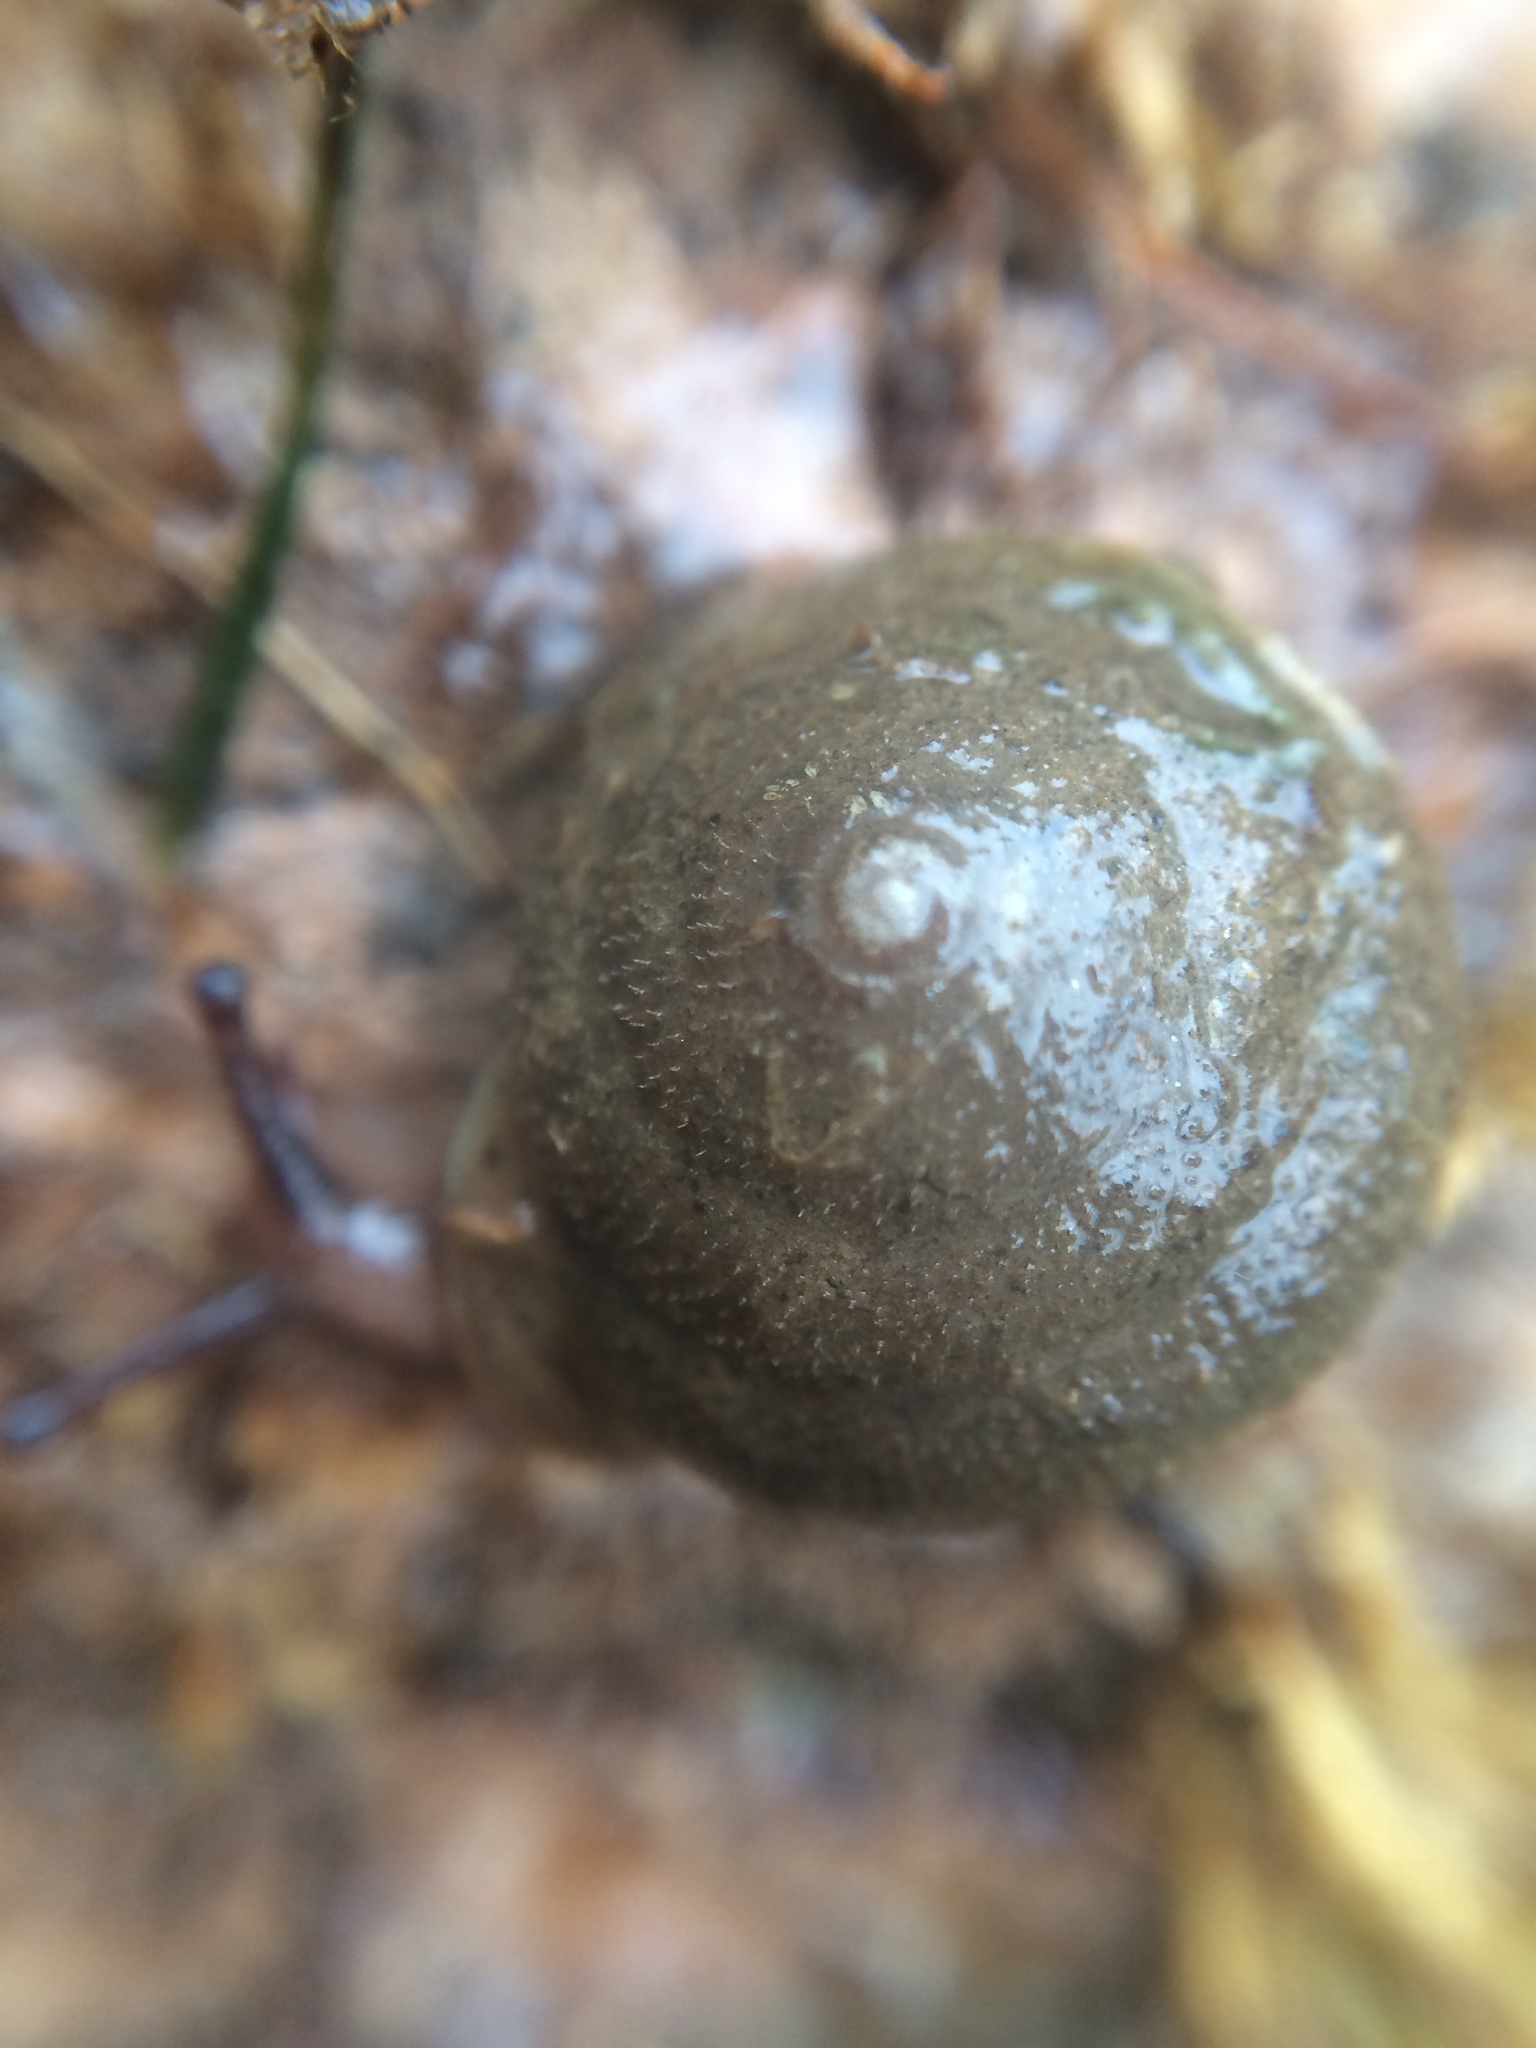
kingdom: Animalia
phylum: Mollusca
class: Gastropoda
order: Stylommatophora
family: Polygyridae
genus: Vespericola
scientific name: Vespericola columbianus
